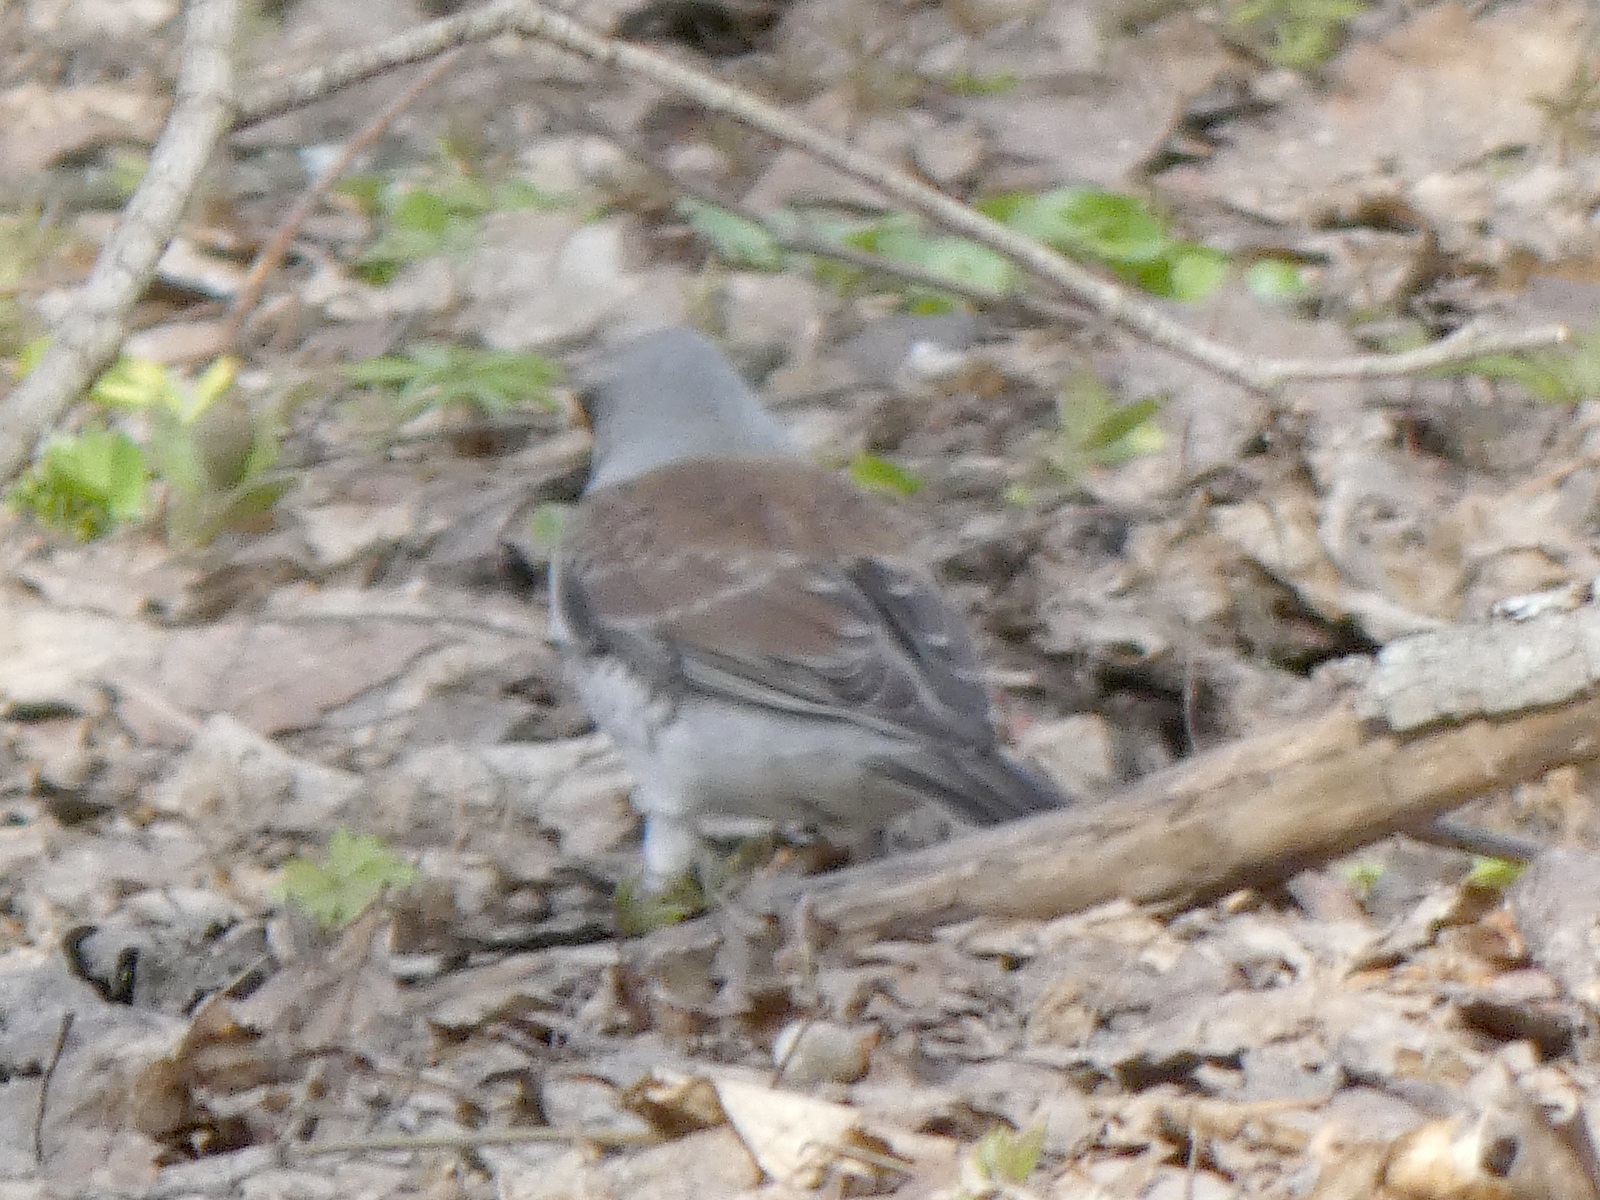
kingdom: Animalia
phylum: Chordata
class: Aves
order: Passeriformes
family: Turdidae
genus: Turdus
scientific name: Turdus pilaris
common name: Fieldfare
